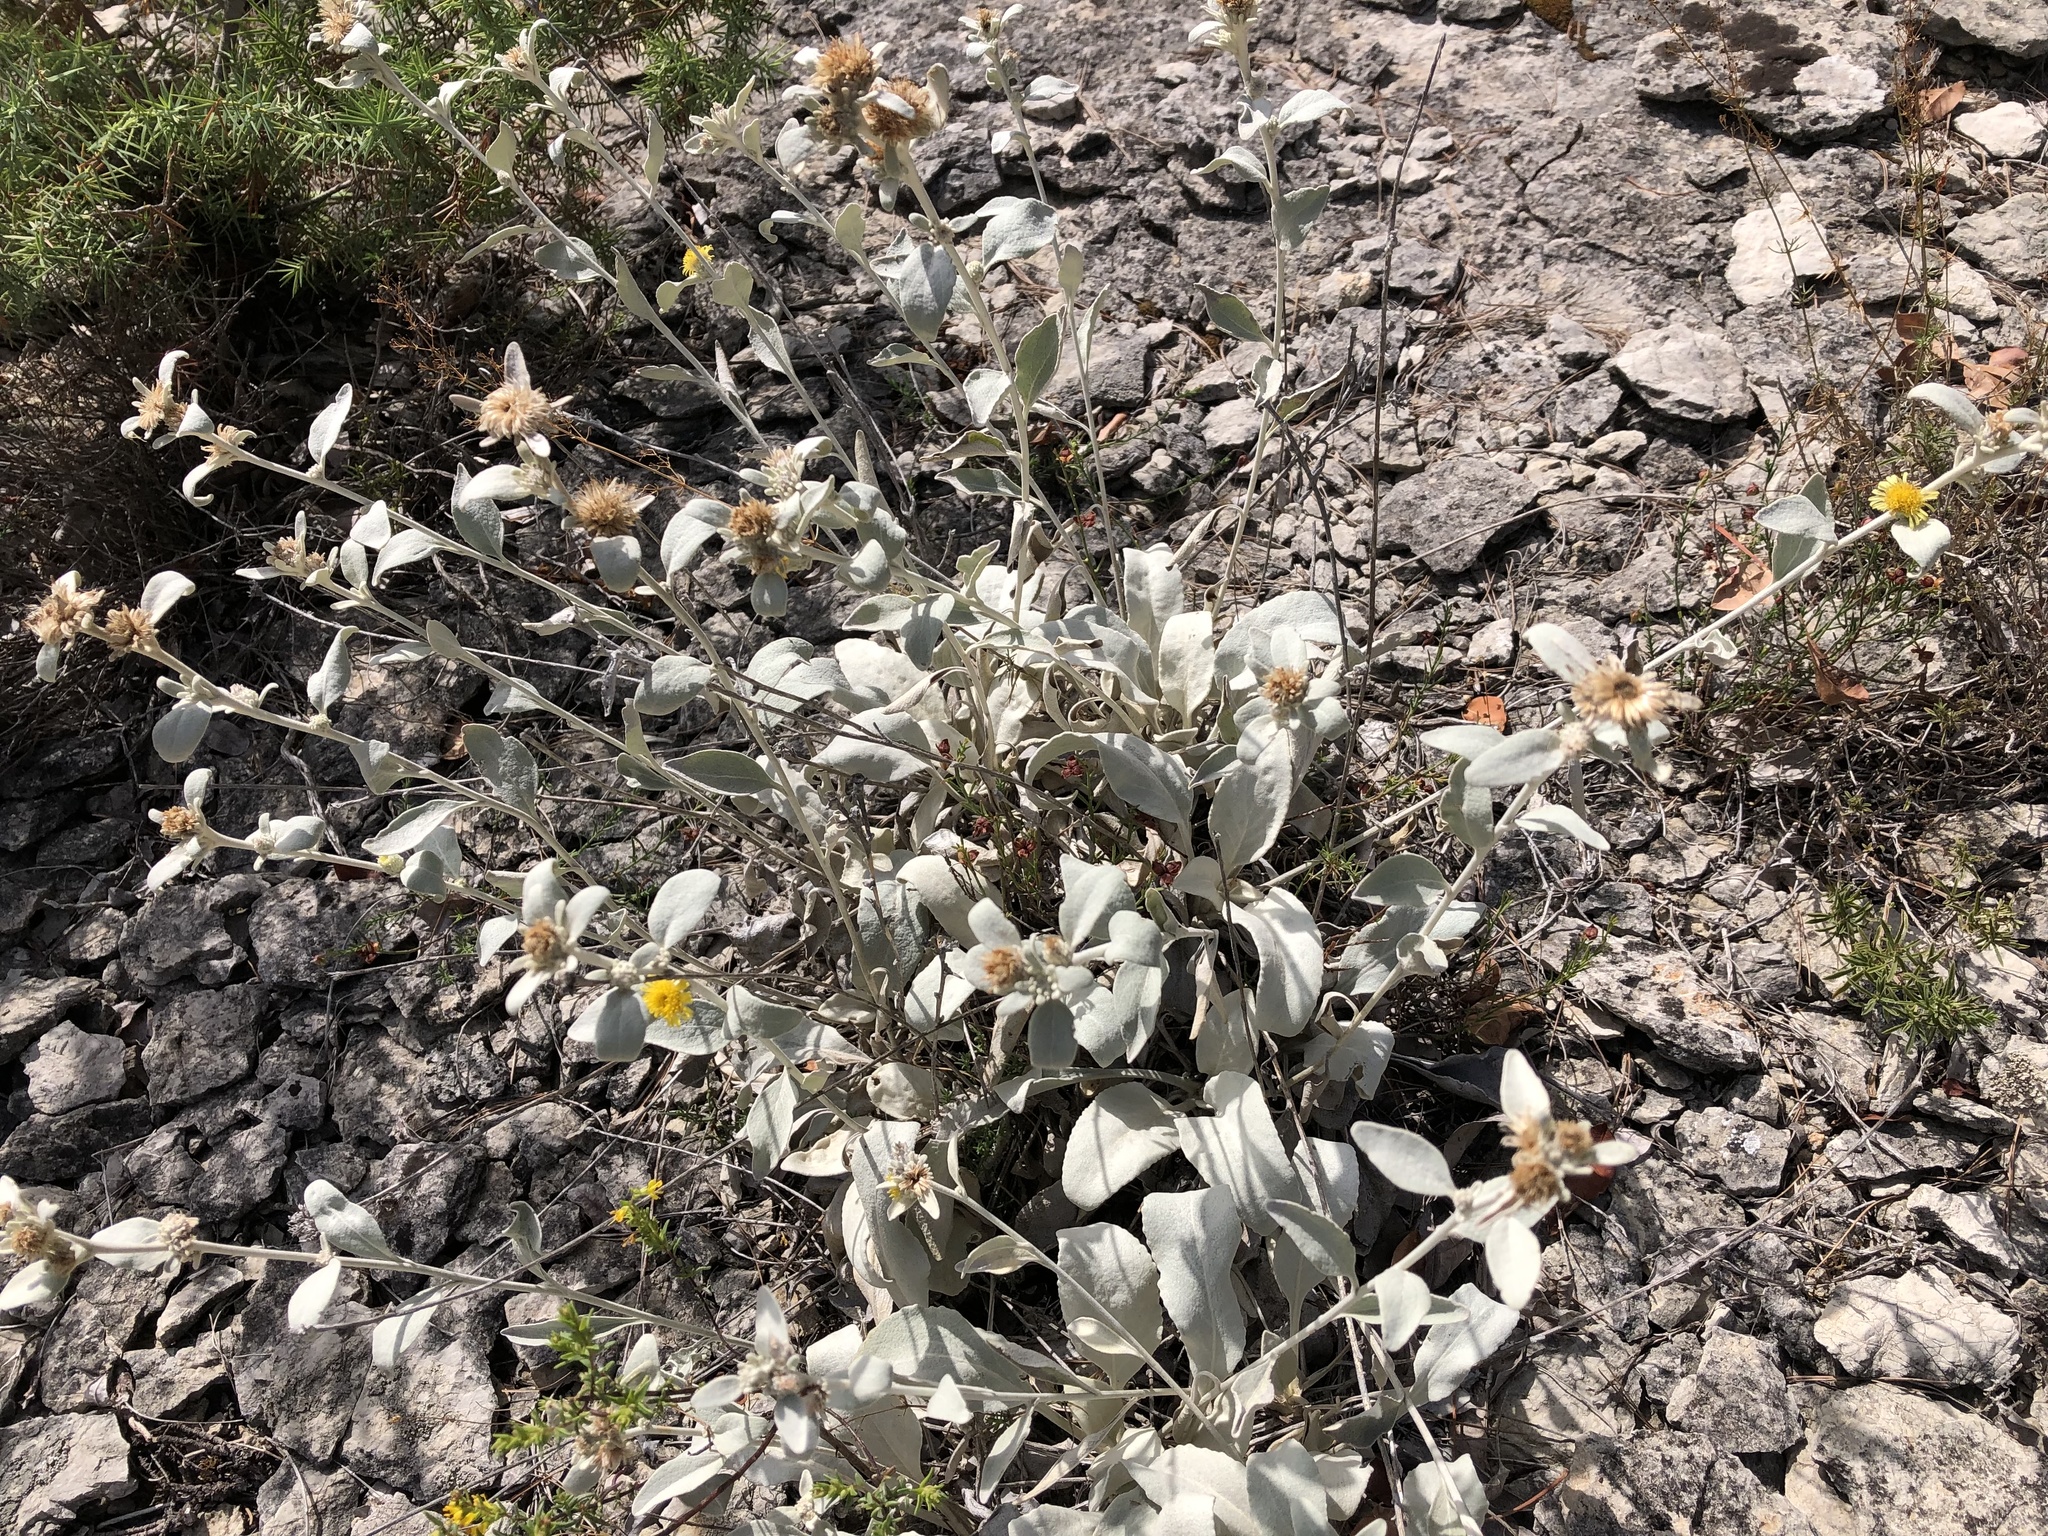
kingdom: Plantae
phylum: Tracheophyta
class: Magnoliopsida
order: Asterales
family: Asteraceae
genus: Pentanema
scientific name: Pentanema verbascifolium
